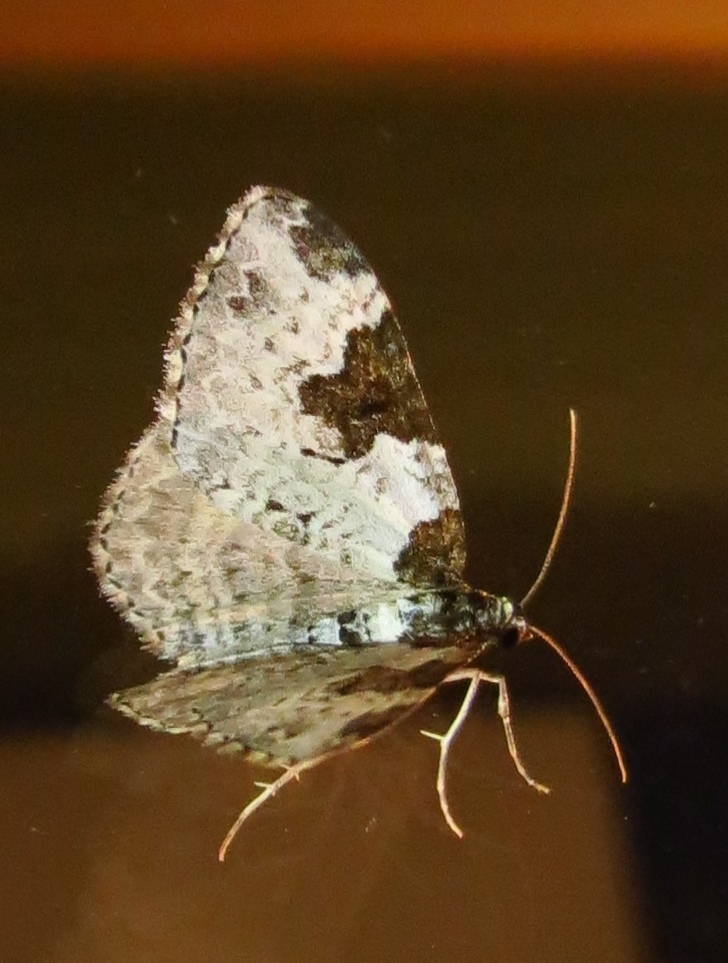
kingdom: Animalia
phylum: Arthropoda
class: Insecta
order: Lepidoptera
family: Geometridae
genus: Xanthorhoe
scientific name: Xanthorhoe fluctuata
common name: Garden carpet
